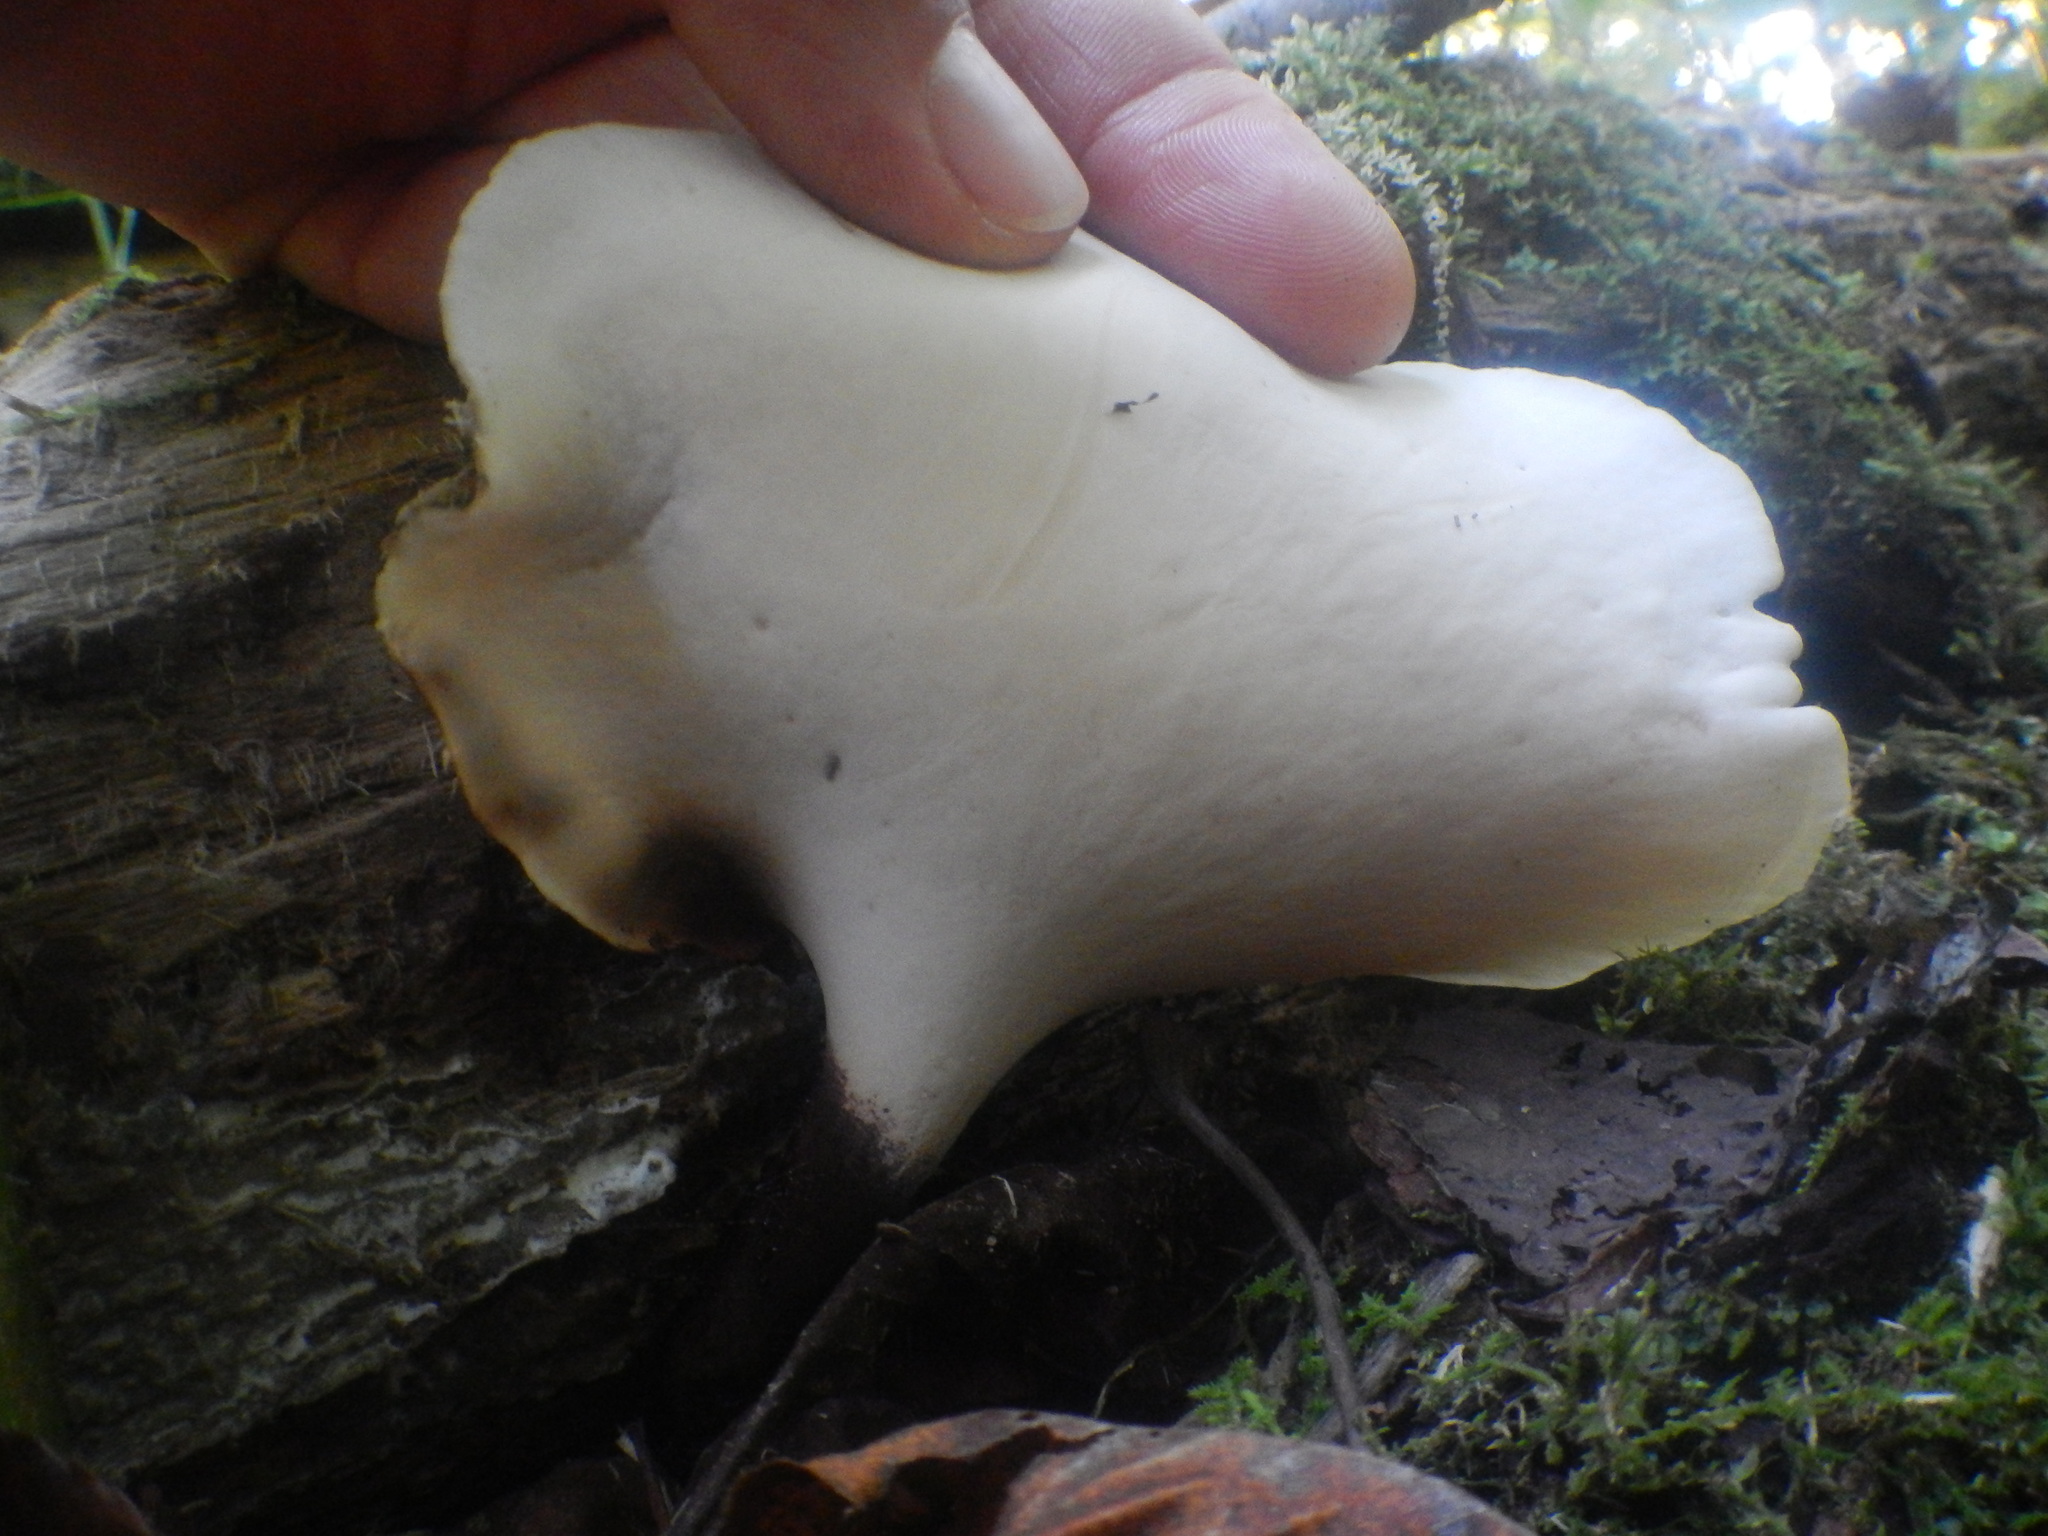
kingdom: Fungi
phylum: Basidiomycota
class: Agaricomycetes
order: Polyporales
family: Polyporaceae
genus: Picipes
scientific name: Picipes badius
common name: Bay polypore
